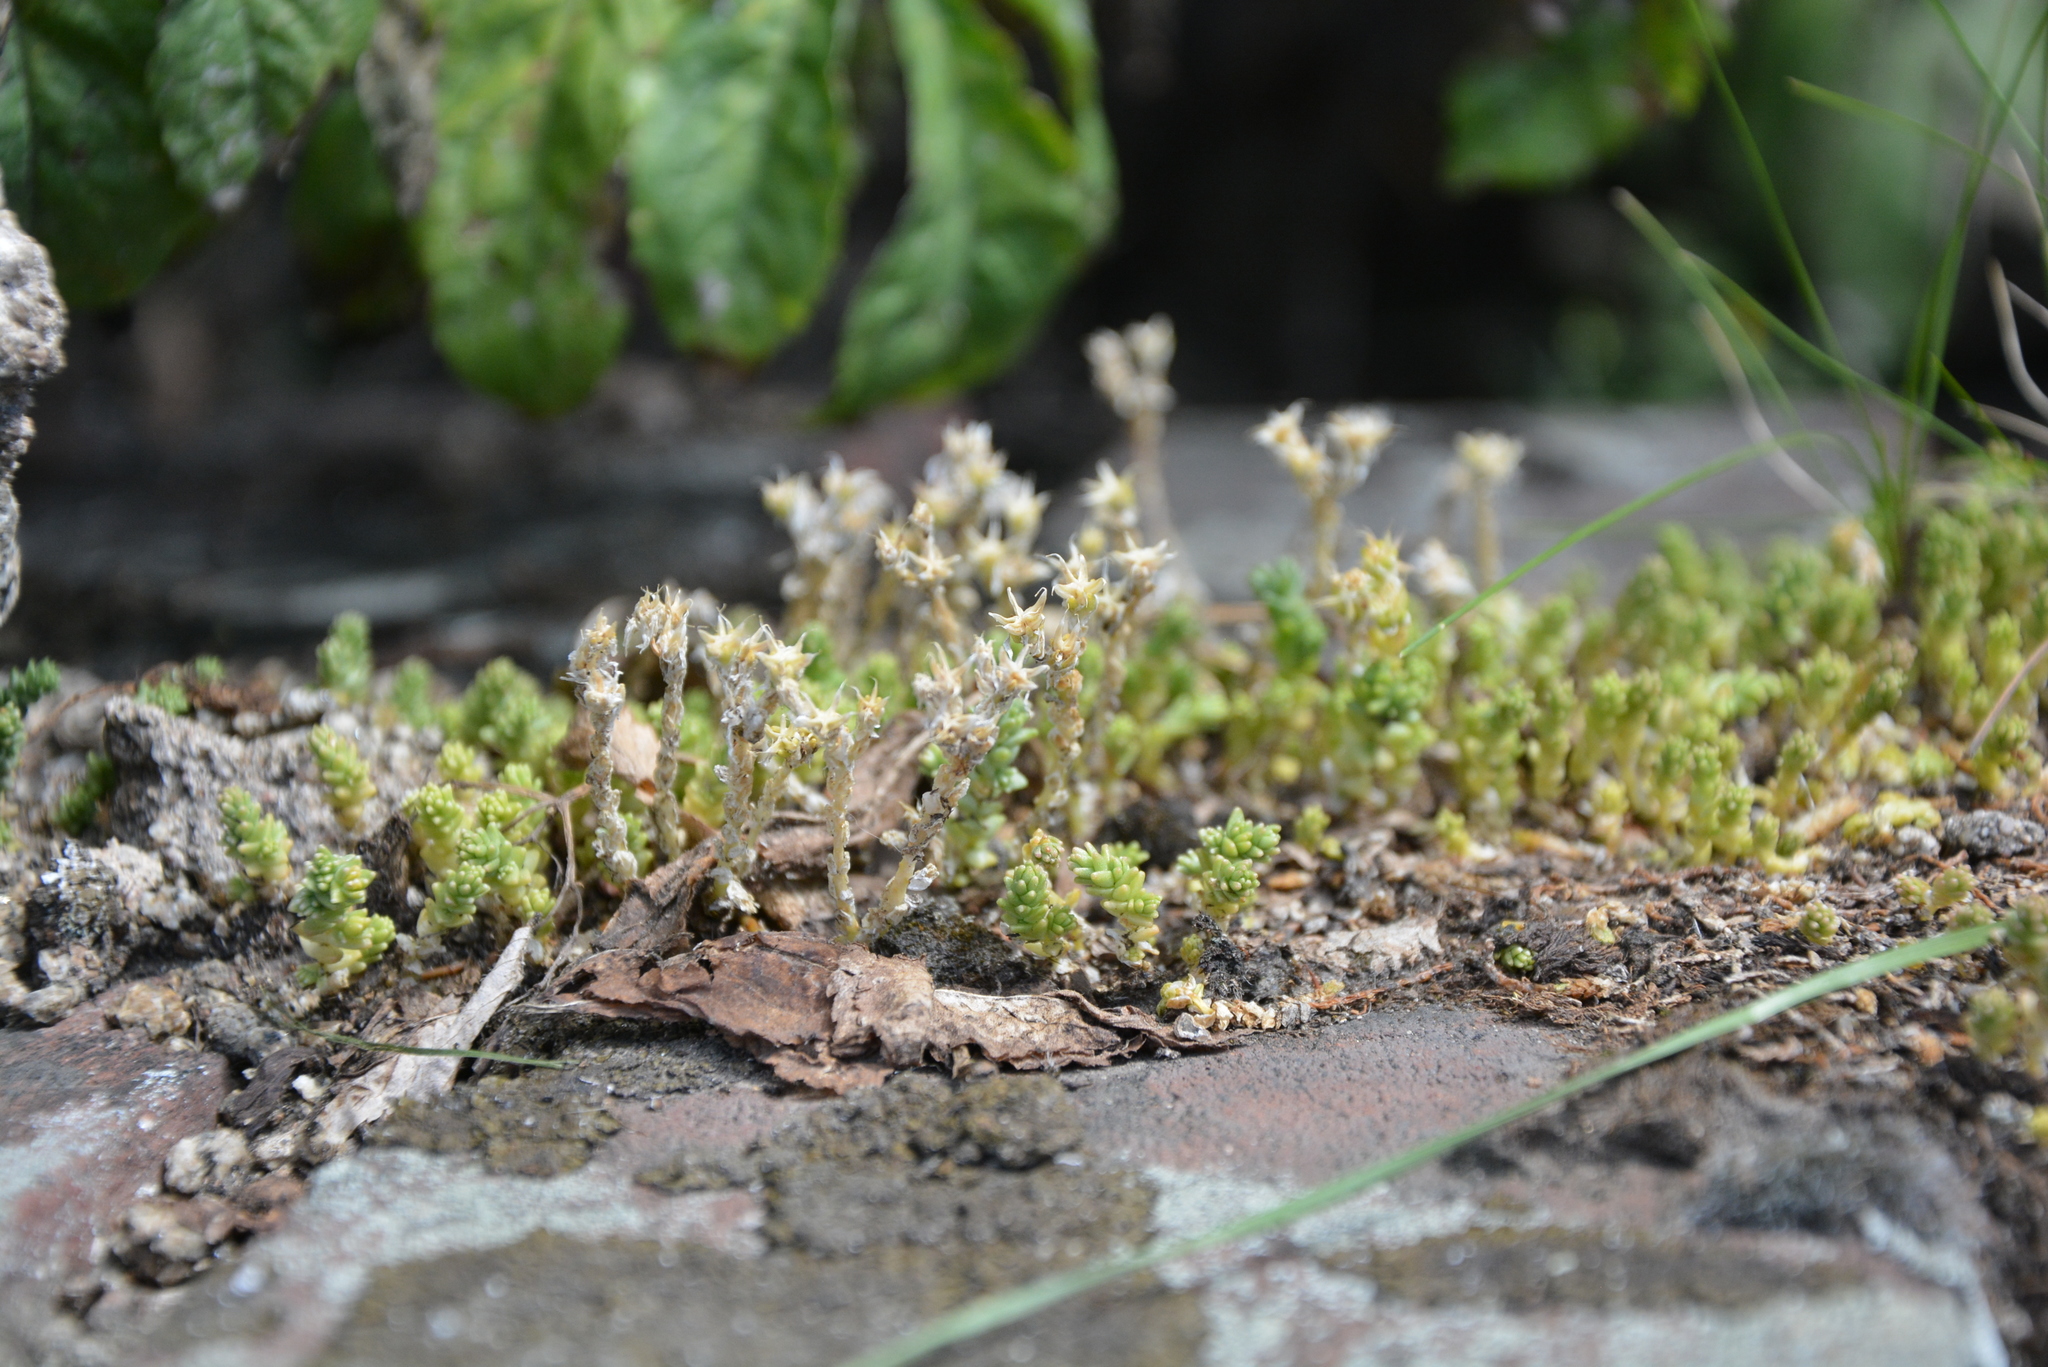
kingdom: Plantae
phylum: Tracheophyta
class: Magnoliopsida
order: Saxifragales
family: Crassulaceae
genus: Sedum
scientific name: Sedum acre
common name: Biting stonecrop
